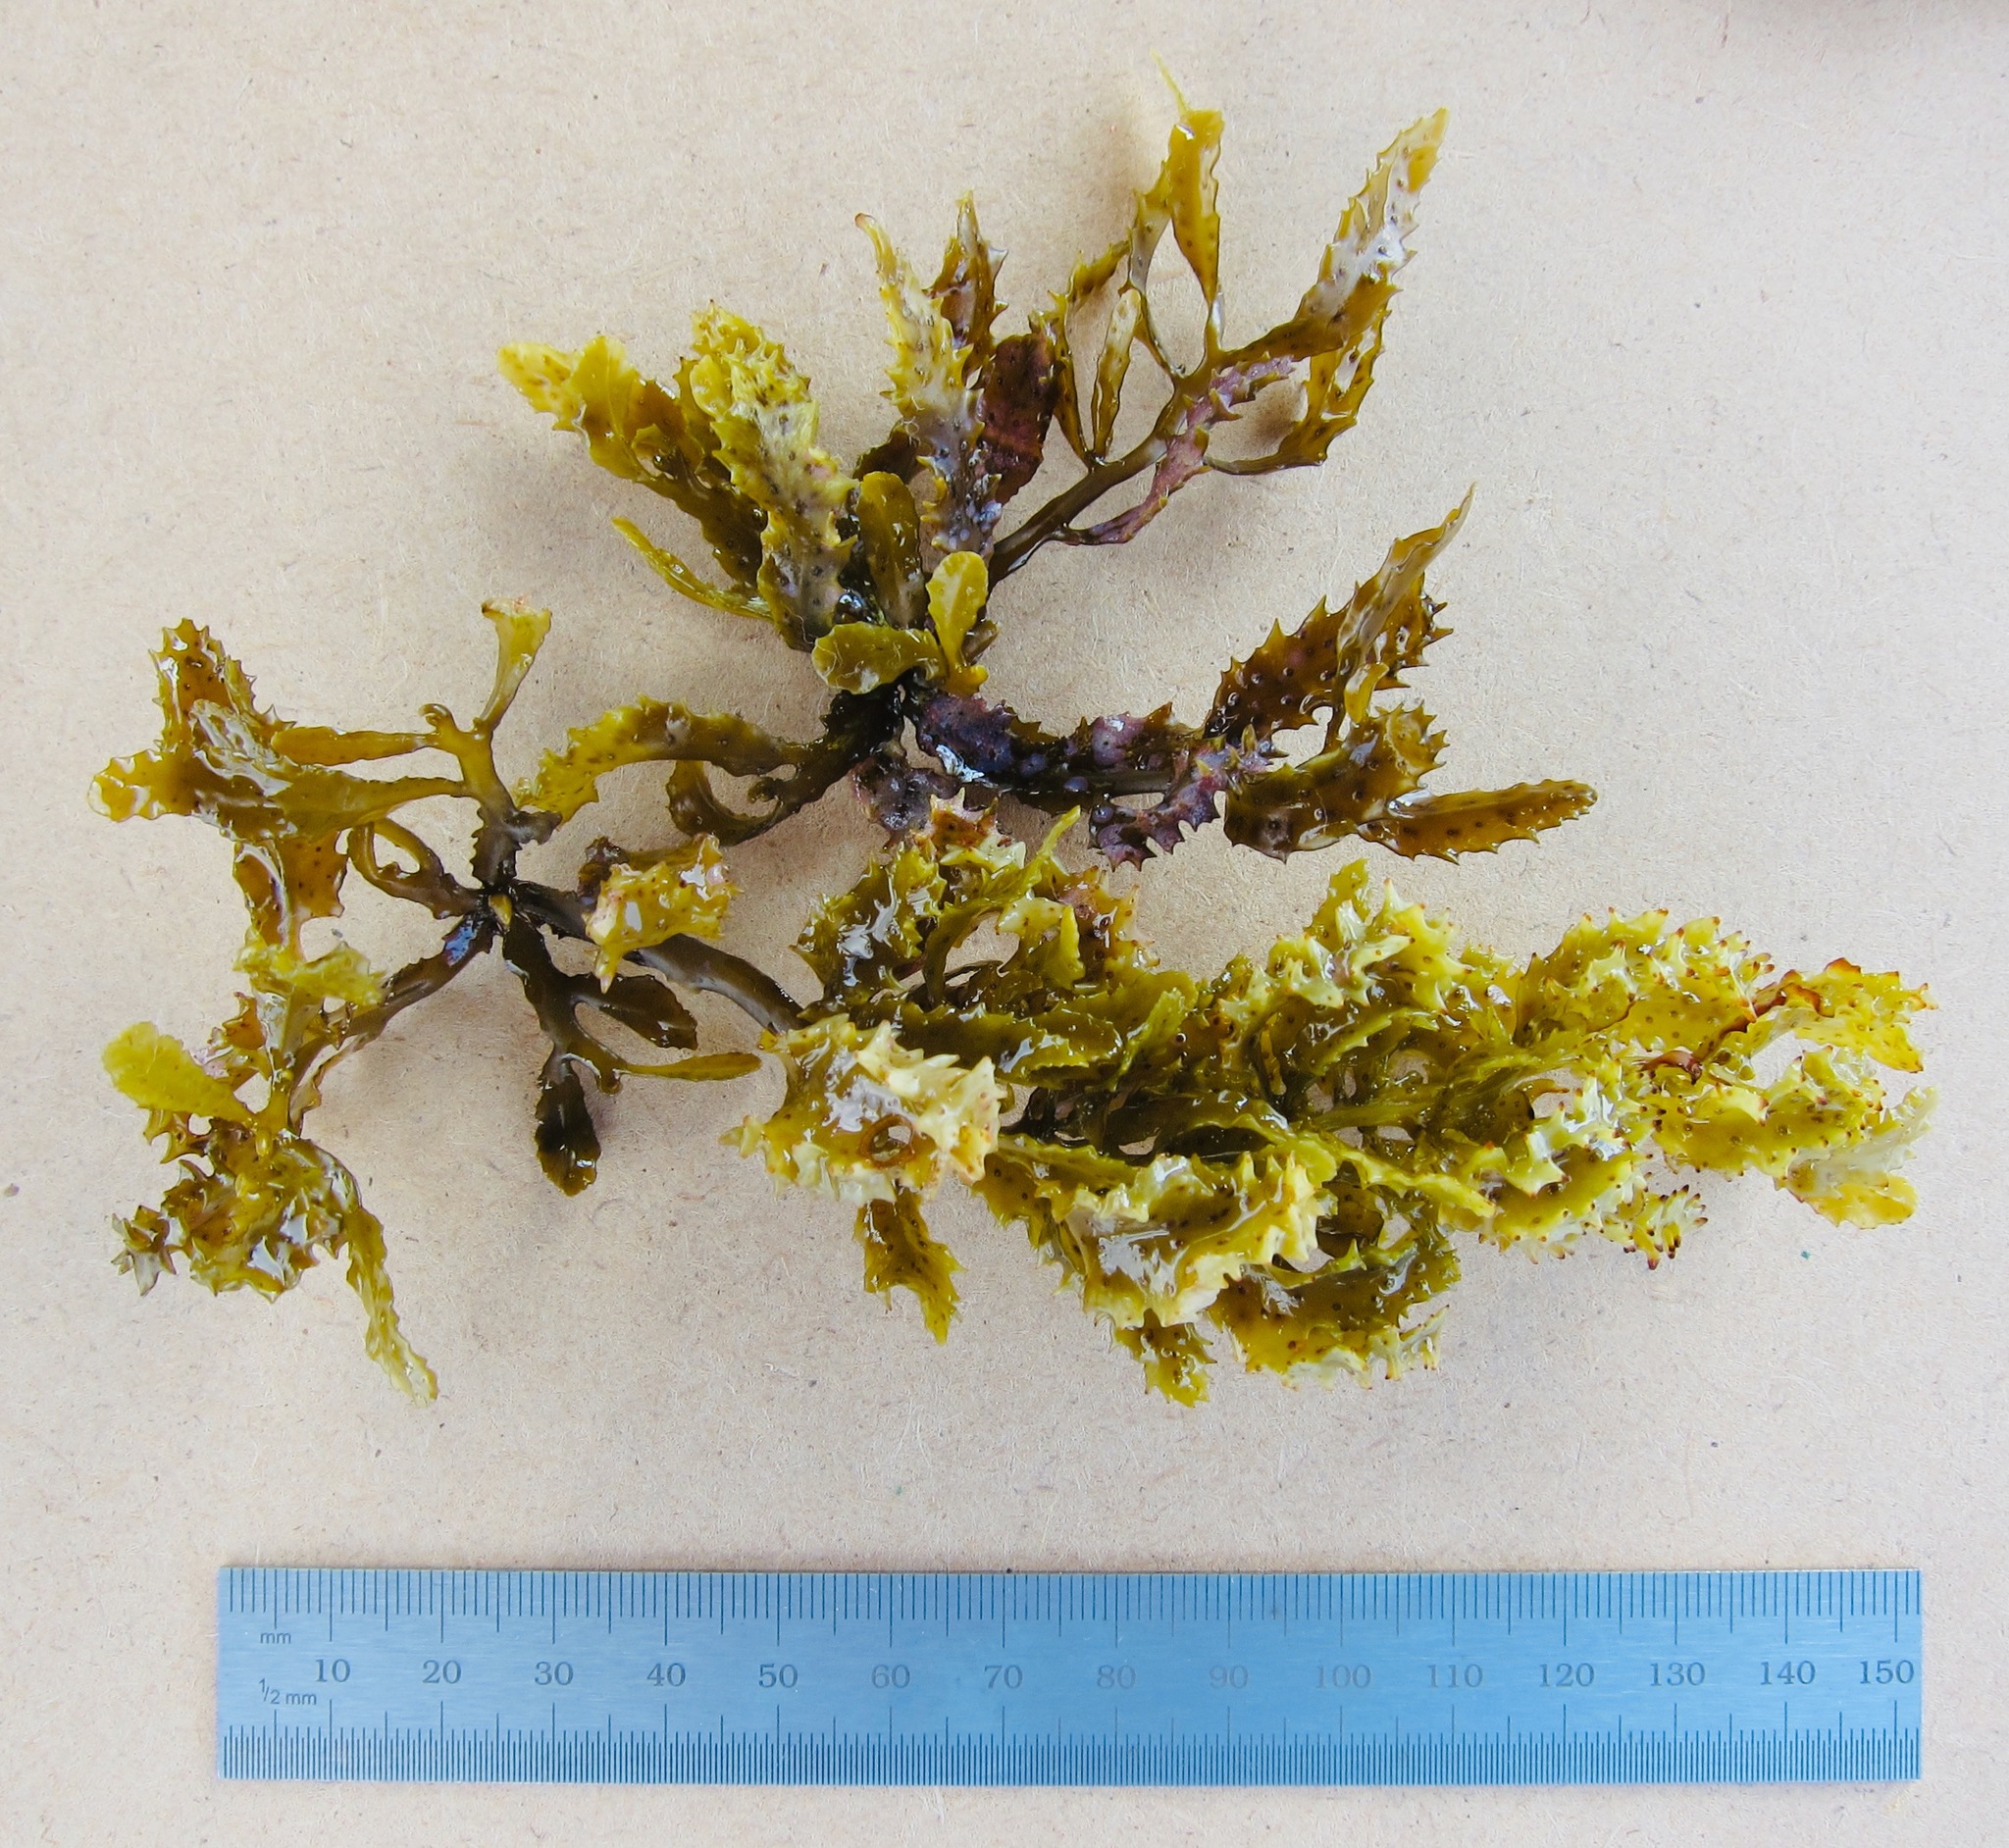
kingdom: Chromista
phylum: Ochrophyta
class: Phaeophyceae
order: Fucales
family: Sargassaceae
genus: Sargassum
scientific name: Sargassum aquifolium
